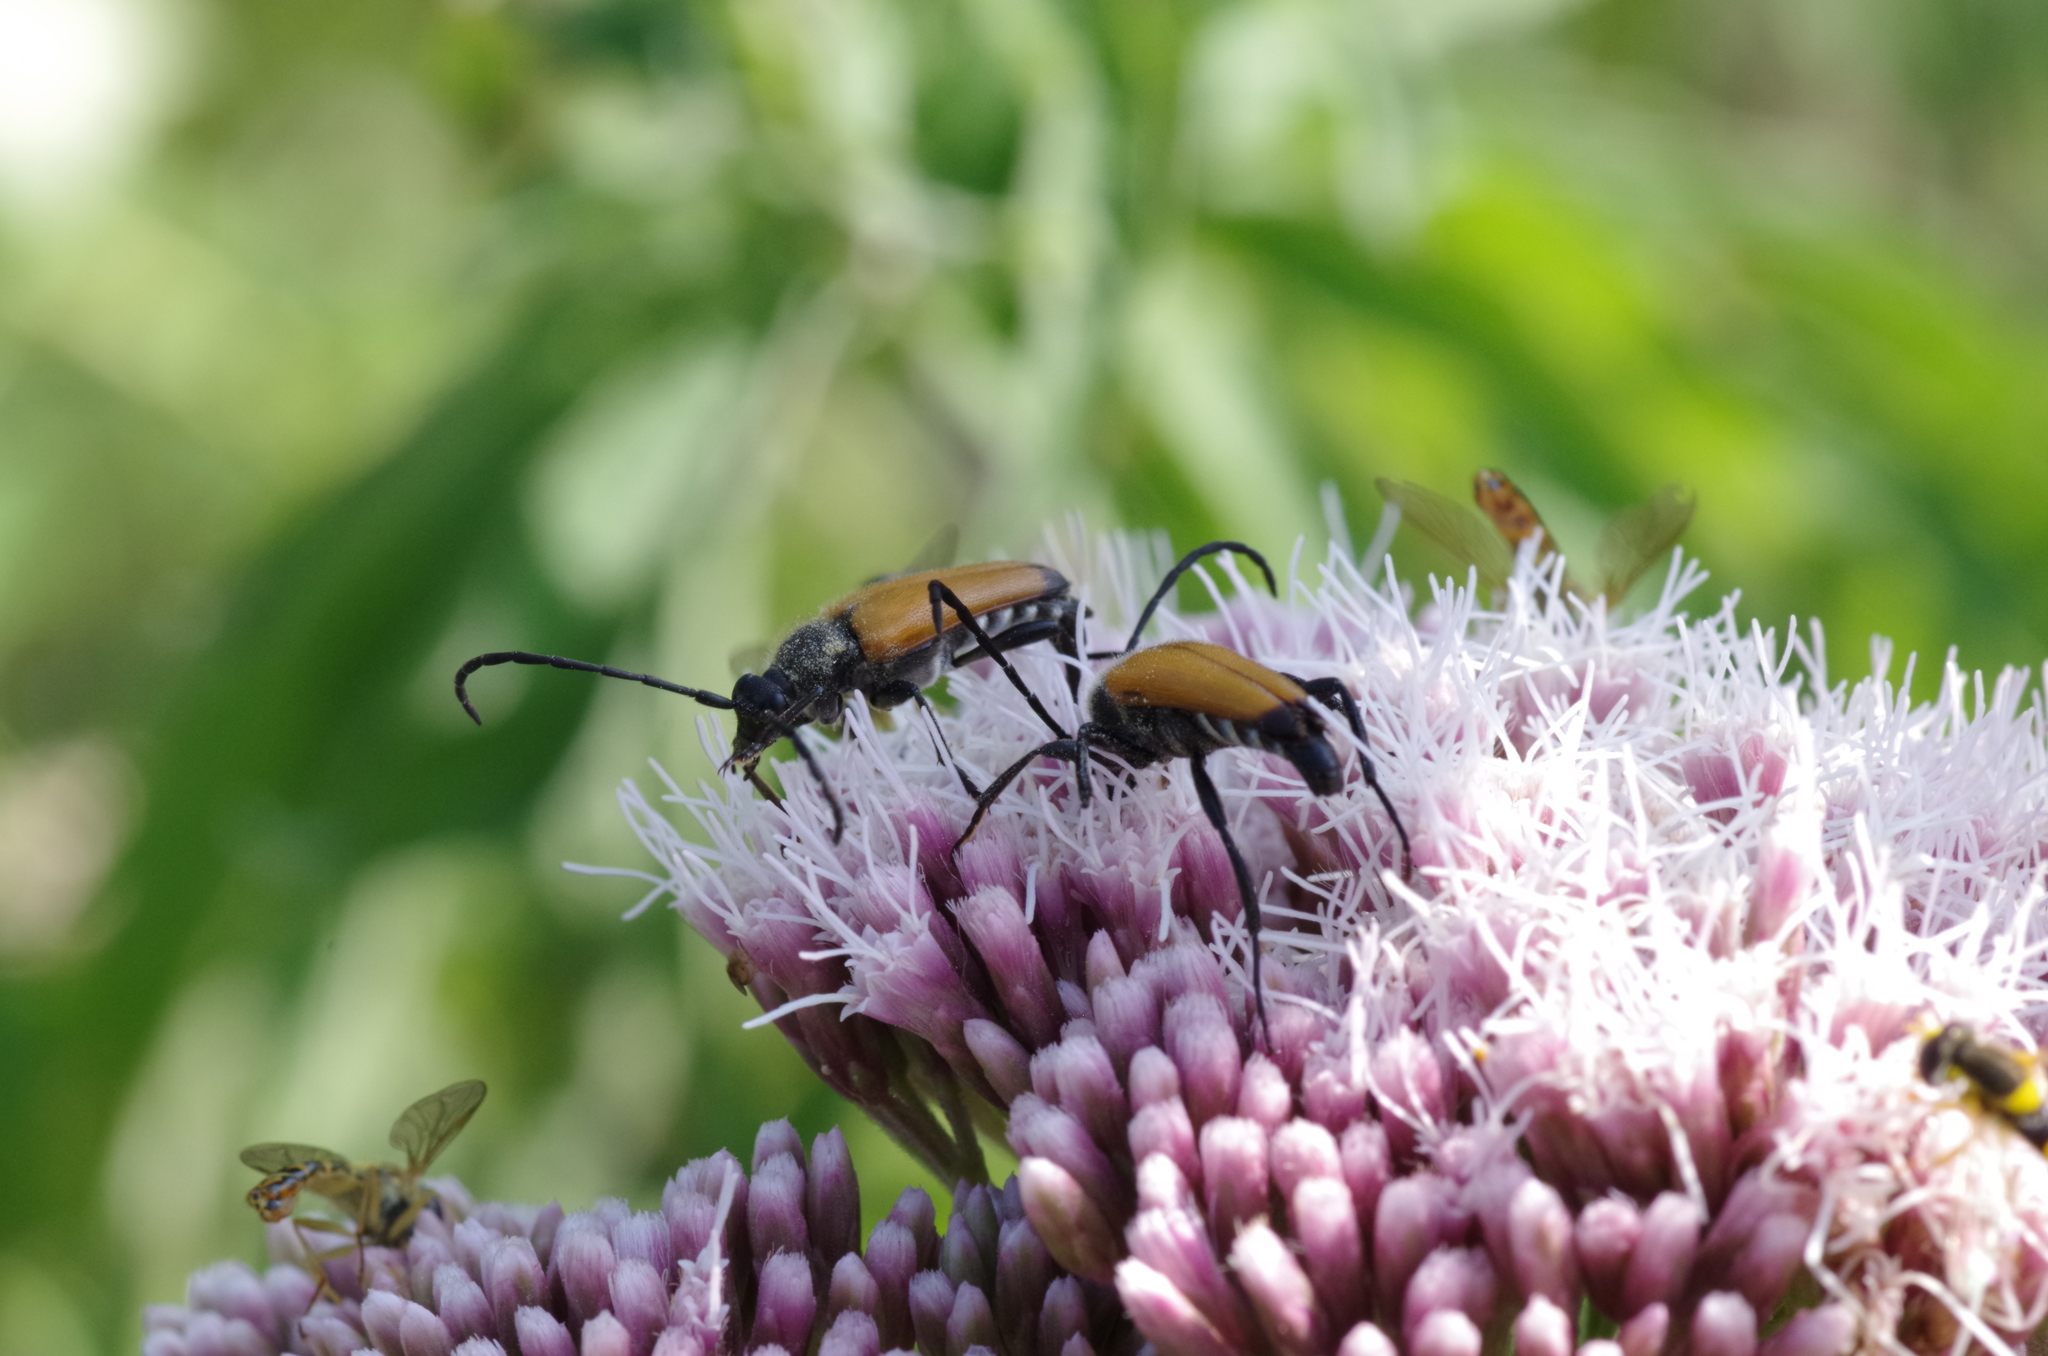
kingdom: Animalia
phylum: Arthropoda
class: Insecta
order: Coleoptera
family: Cerambycidae
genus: Paracorymbia
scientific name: Paracorymbia fulva
